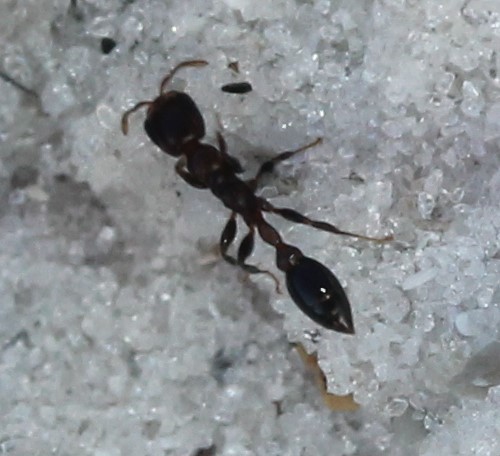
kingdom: Animalia
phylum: Arthropoda
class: Insecta
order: Hymenoptera
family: Formicidae
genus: Pseudomyrmex
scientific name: Pseudomyrmex ejectus
